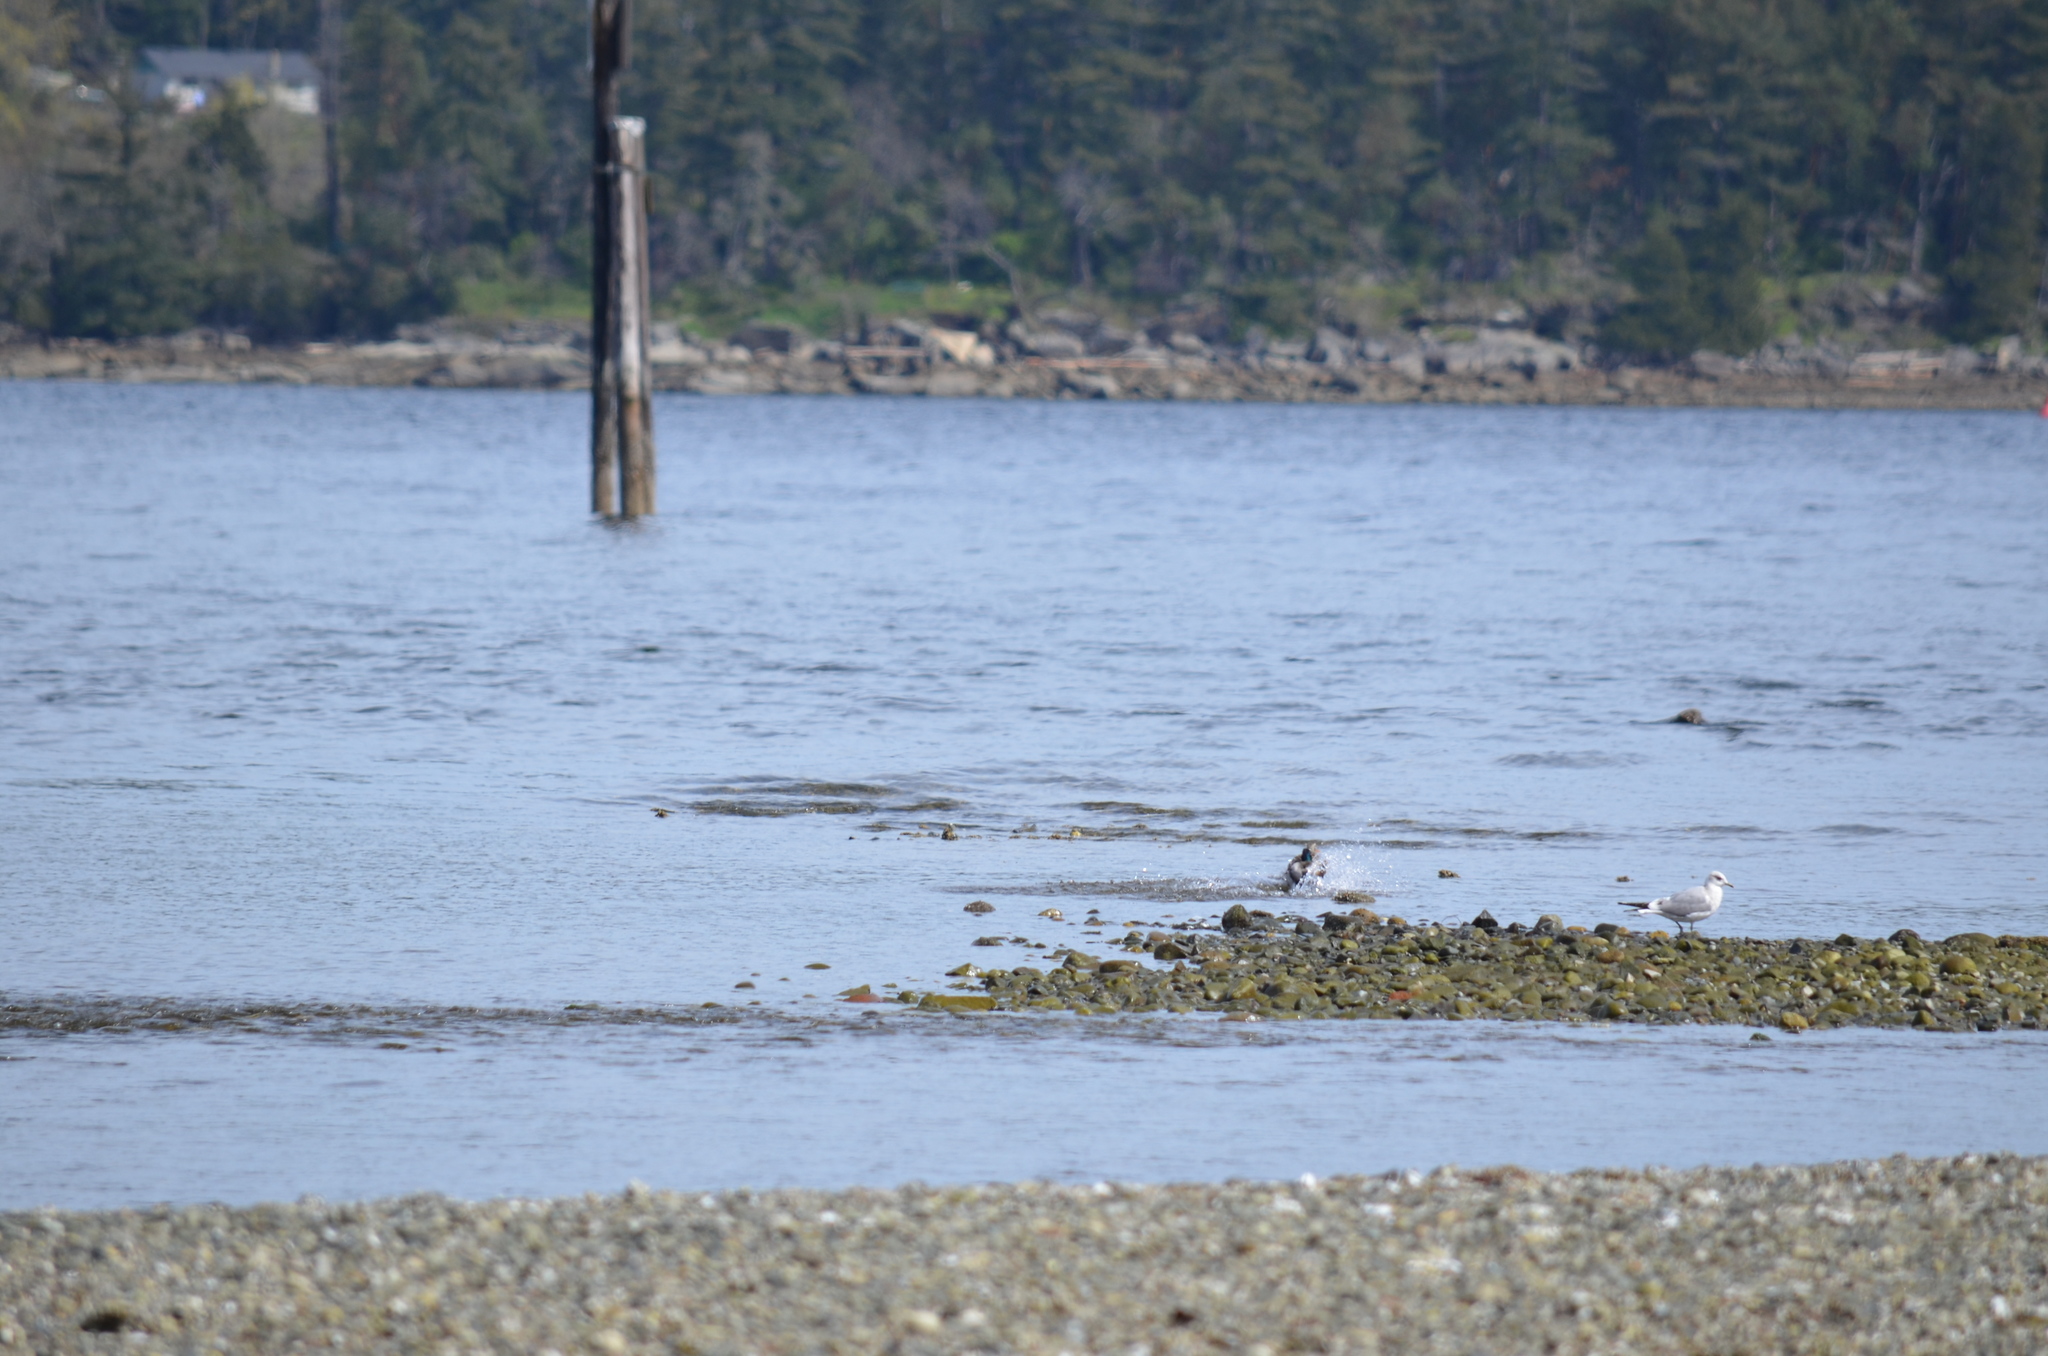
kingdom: Animalia
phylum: Chordata
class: Aves
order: Charadriiformes
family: Laridae
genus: Larus
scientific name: Larus brachyrhynchus
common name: Short-billed gull
